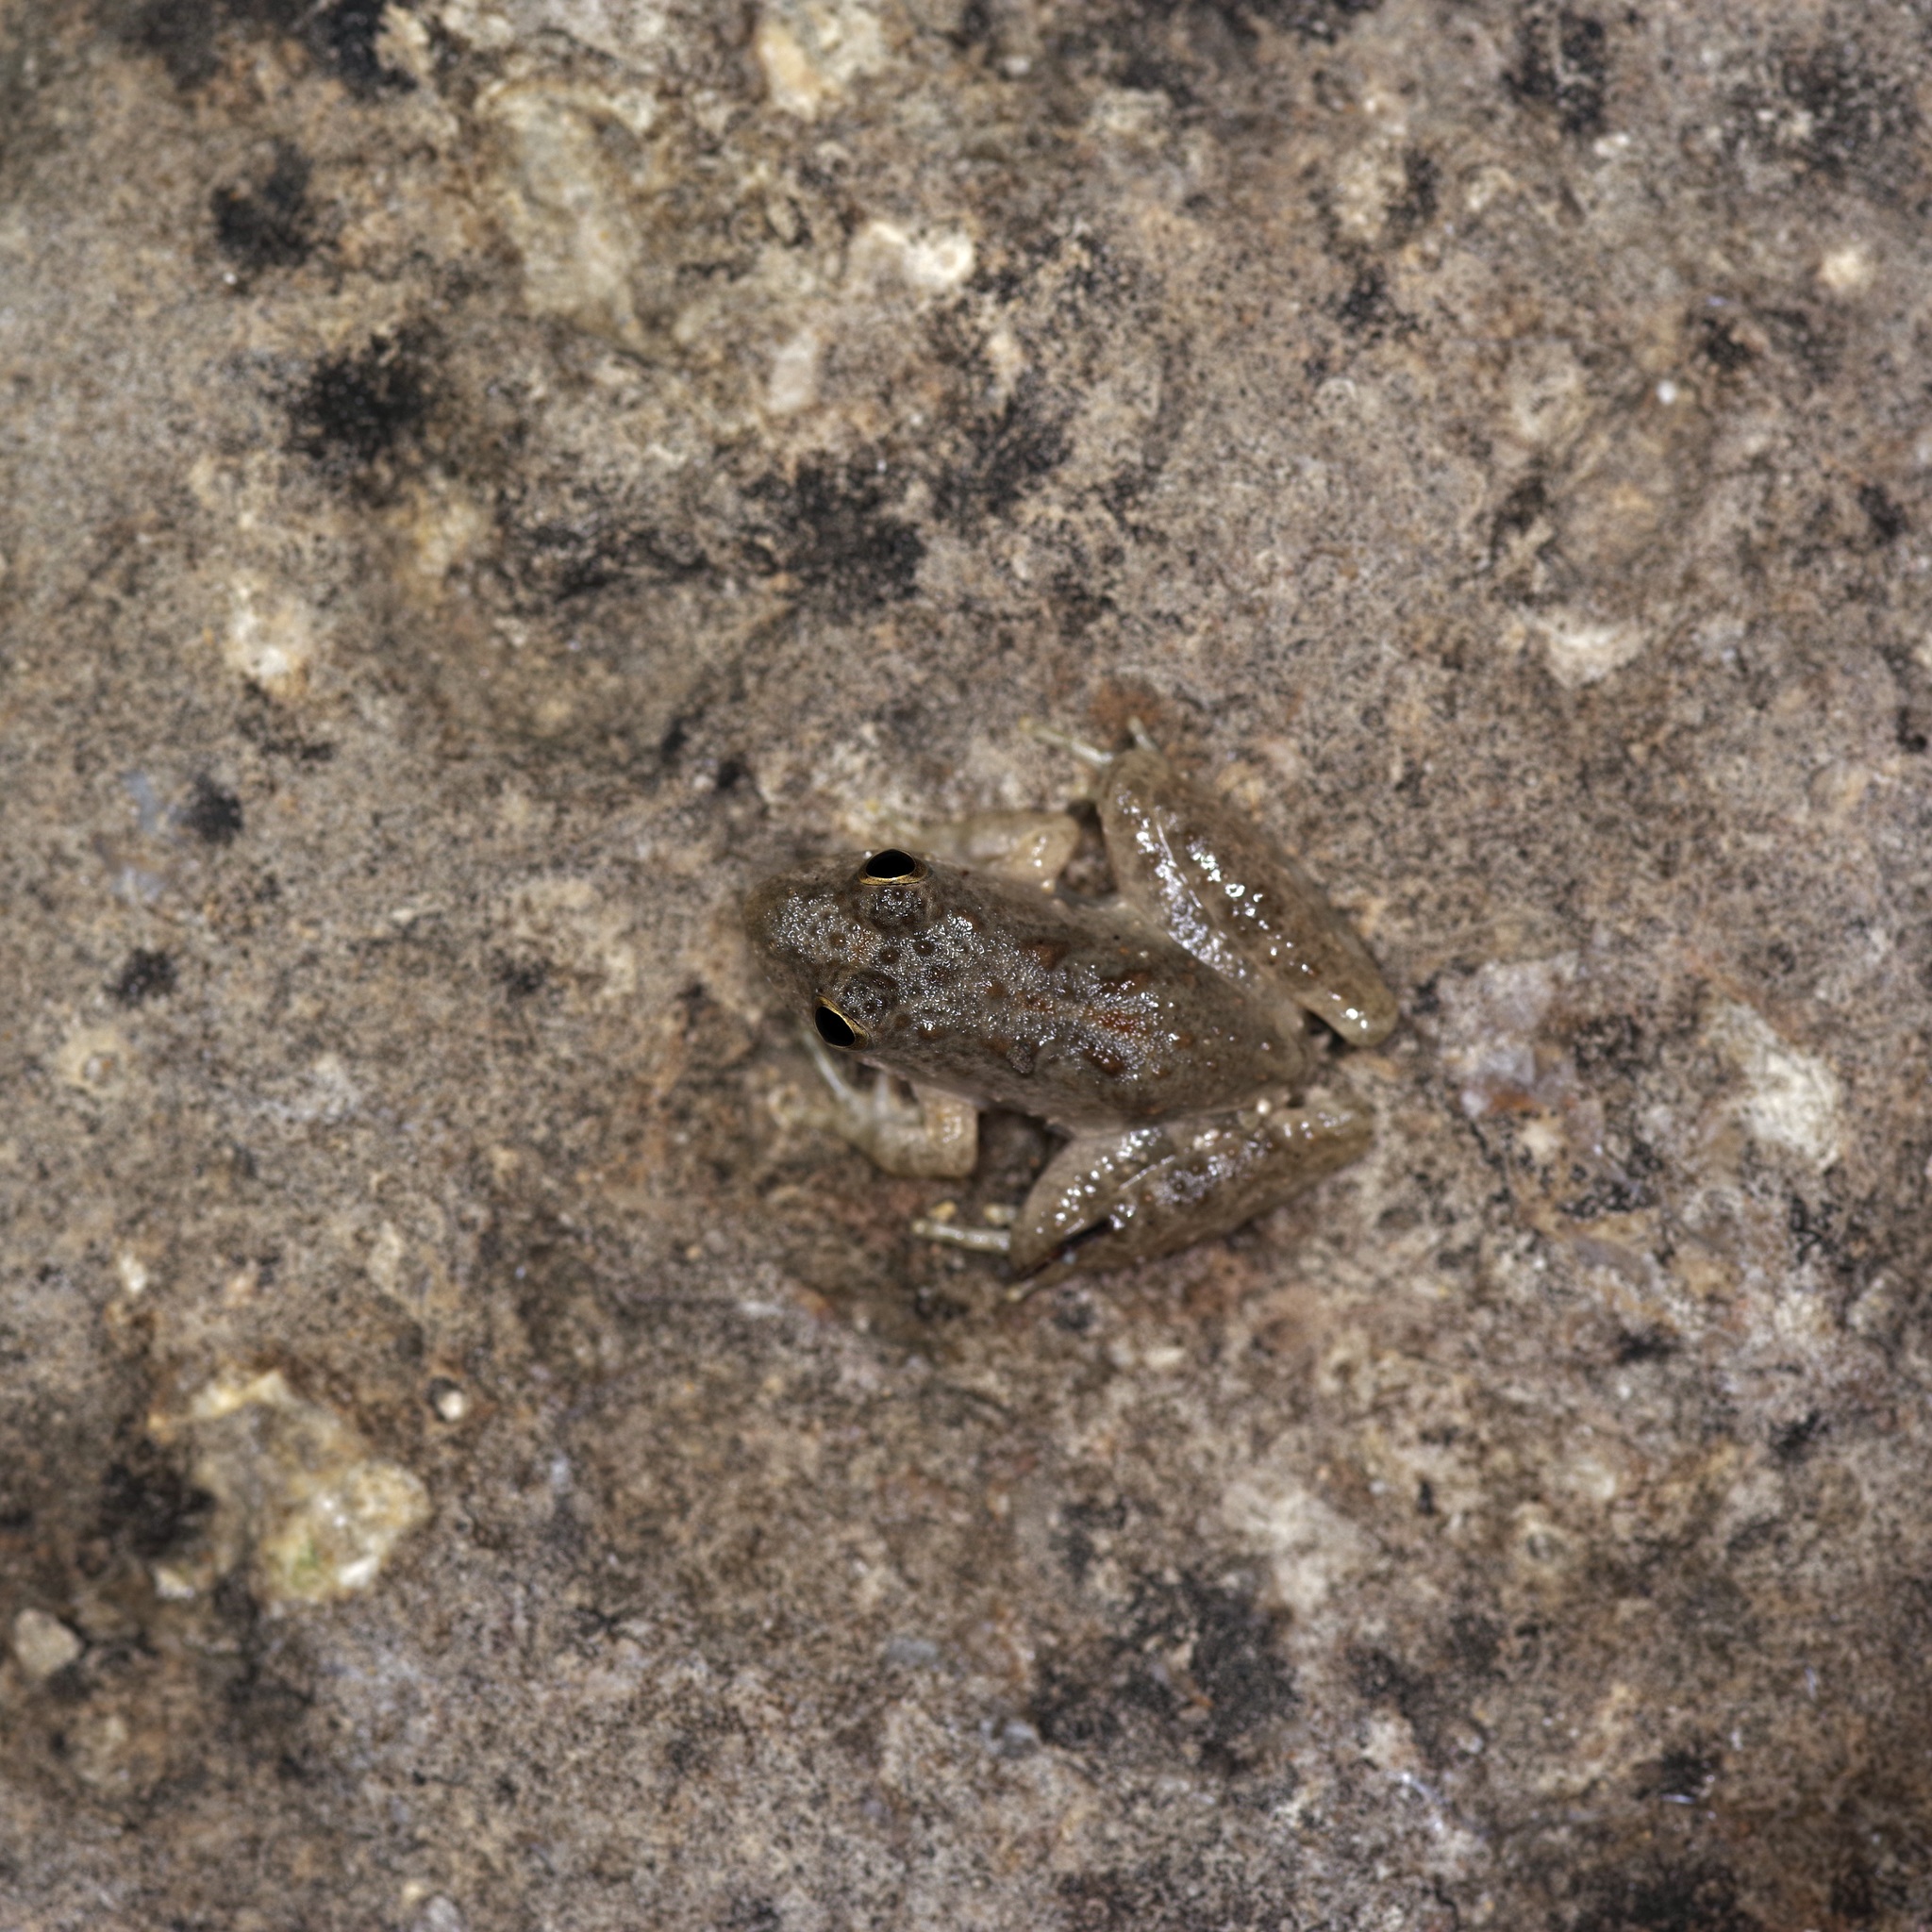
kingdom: Animalia
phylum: Chordata
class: Amphibia
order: Anura
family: Hylidae
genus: Acris
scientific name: Acris blanchardi
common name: Blanchard's cricket frog
